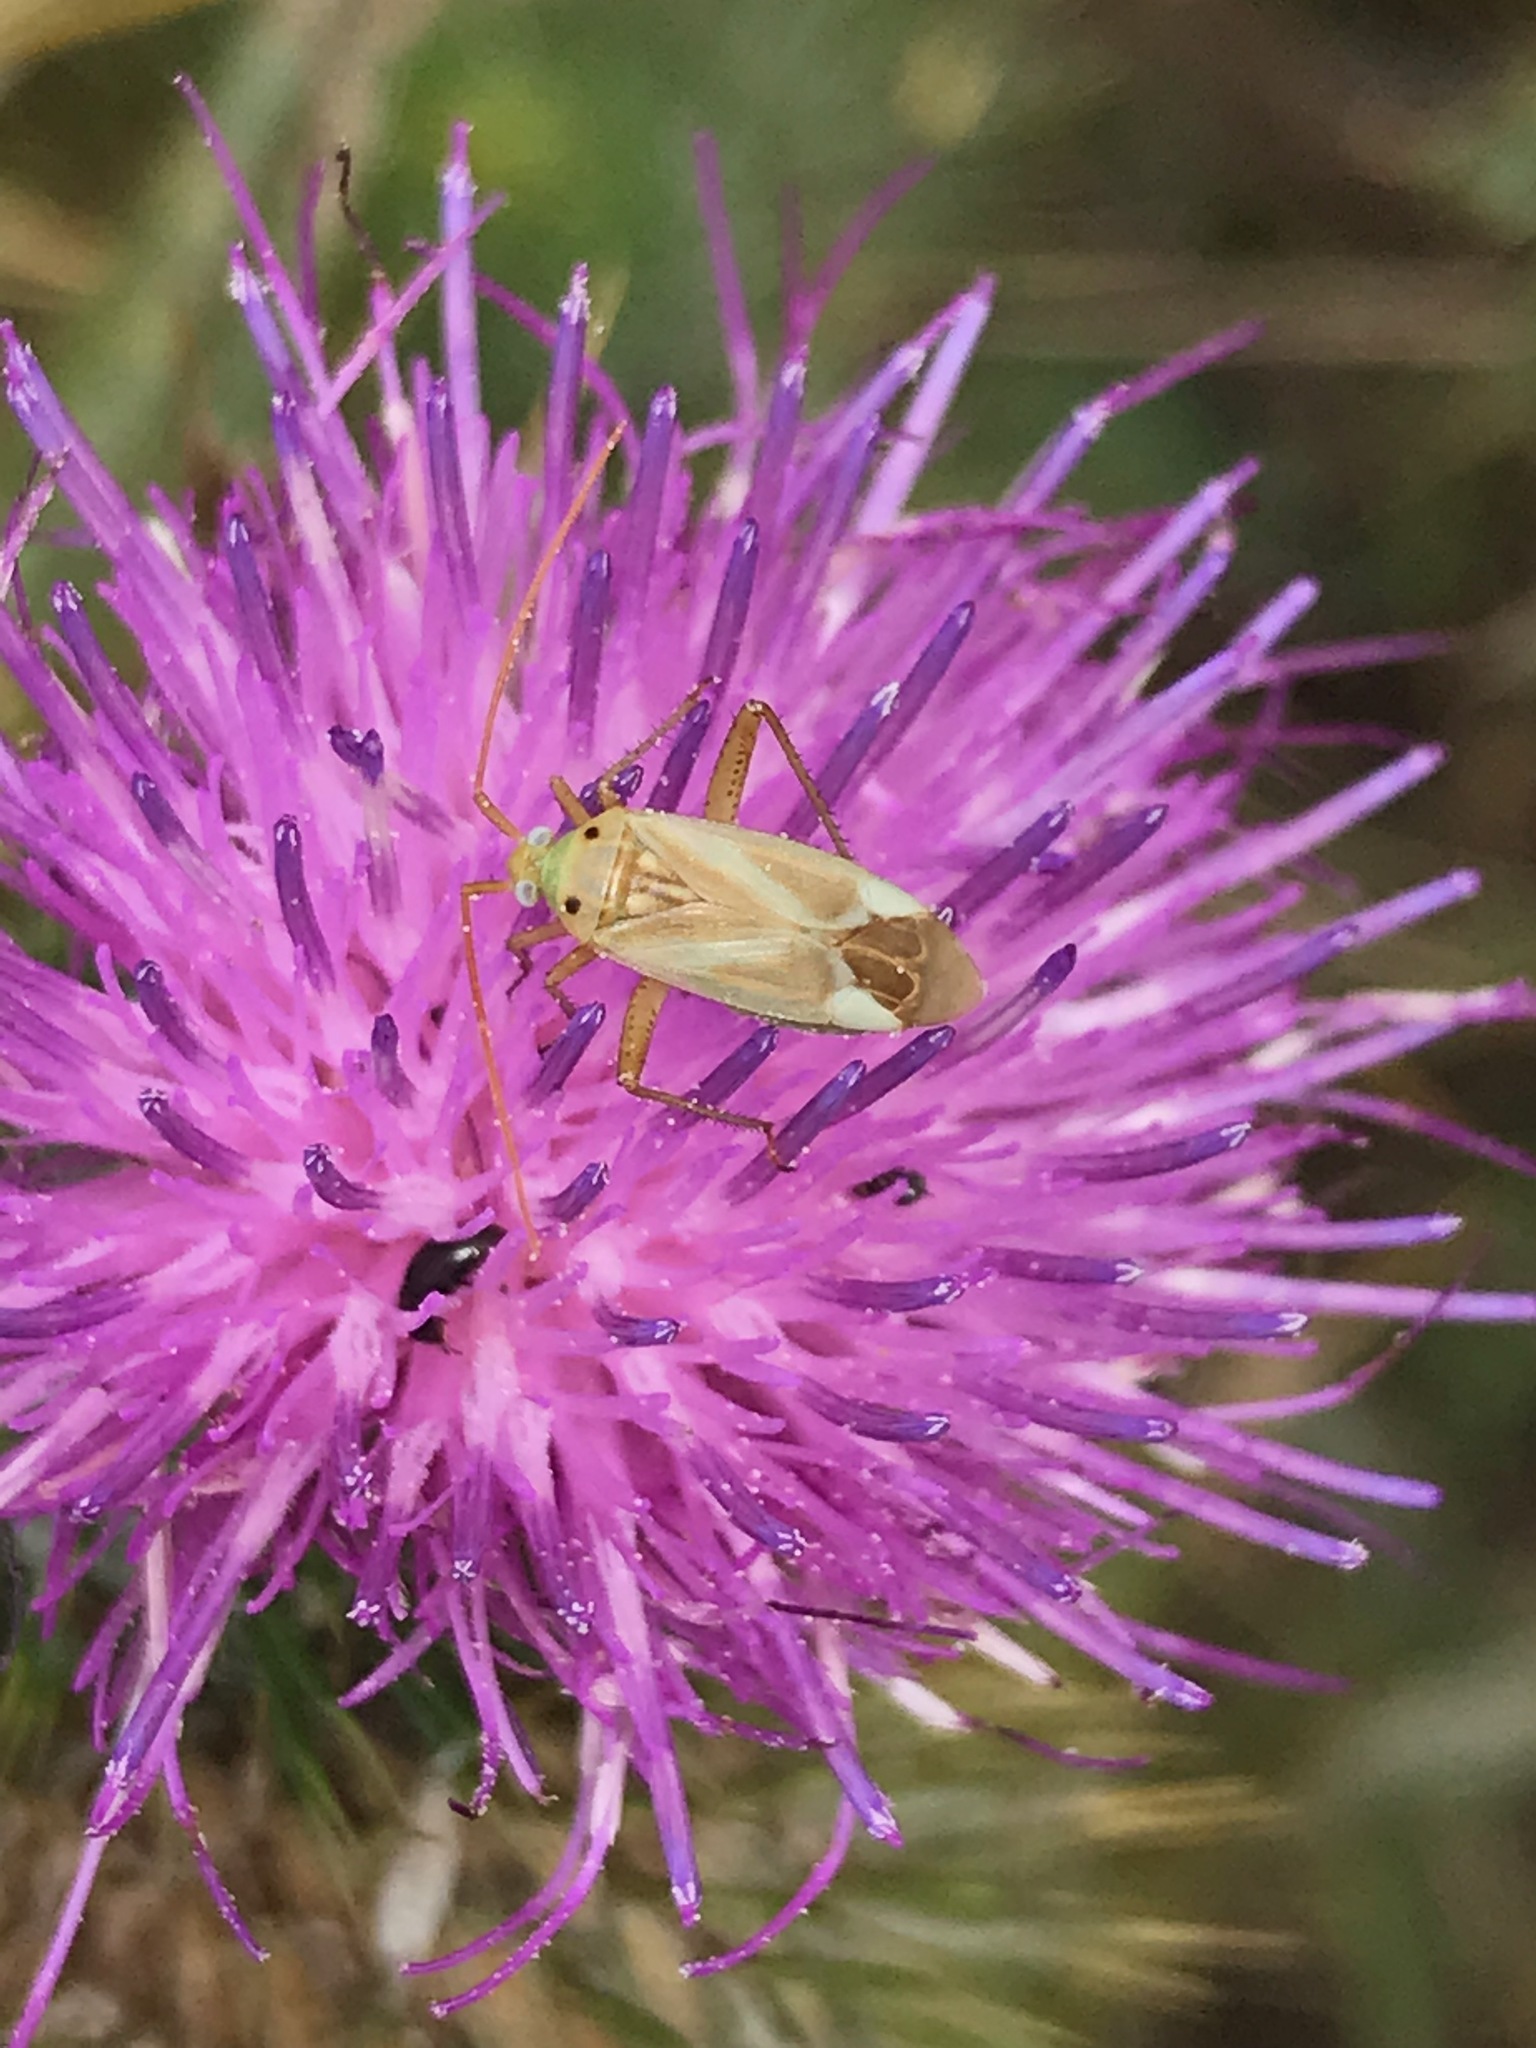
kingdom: Animalia
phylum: Arthropoda
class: Insecta
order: Hemiptera
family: Miridae
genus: Adelphocoris
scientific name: Adelphocoris lineolatus
